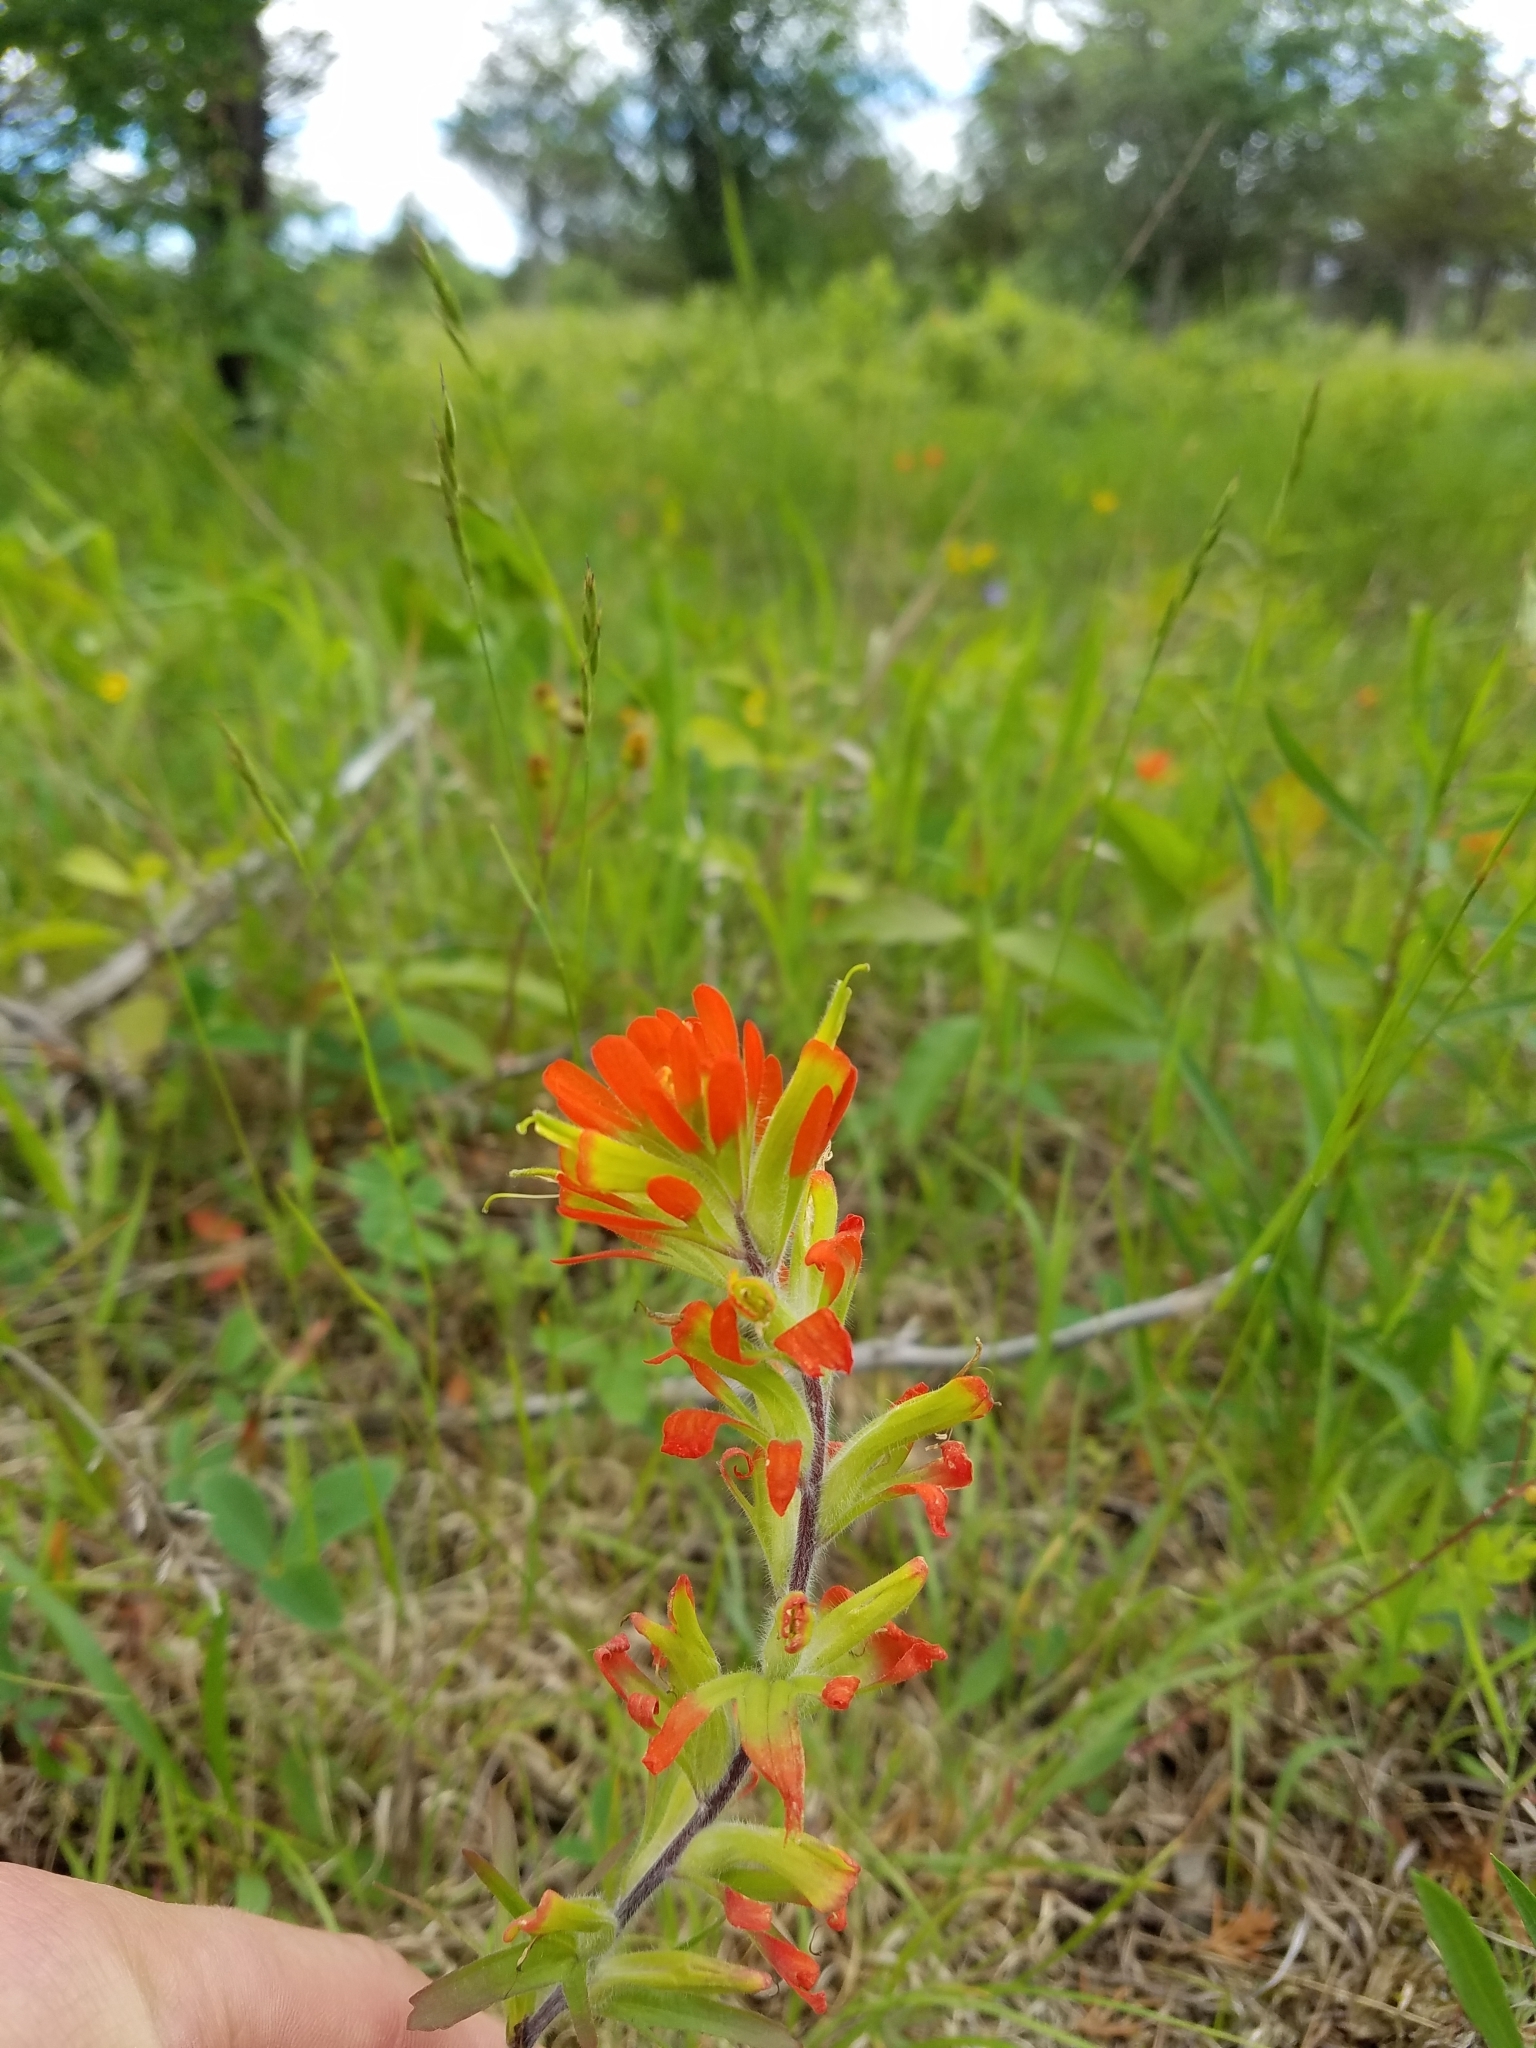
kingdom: Plantae
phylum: Tracheophyta
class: Magnoliopsida
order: Lamiales
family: Orobanchaceae
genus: Castilleja
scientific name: Castilleja coccinea
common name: Scarlet paintbrush
